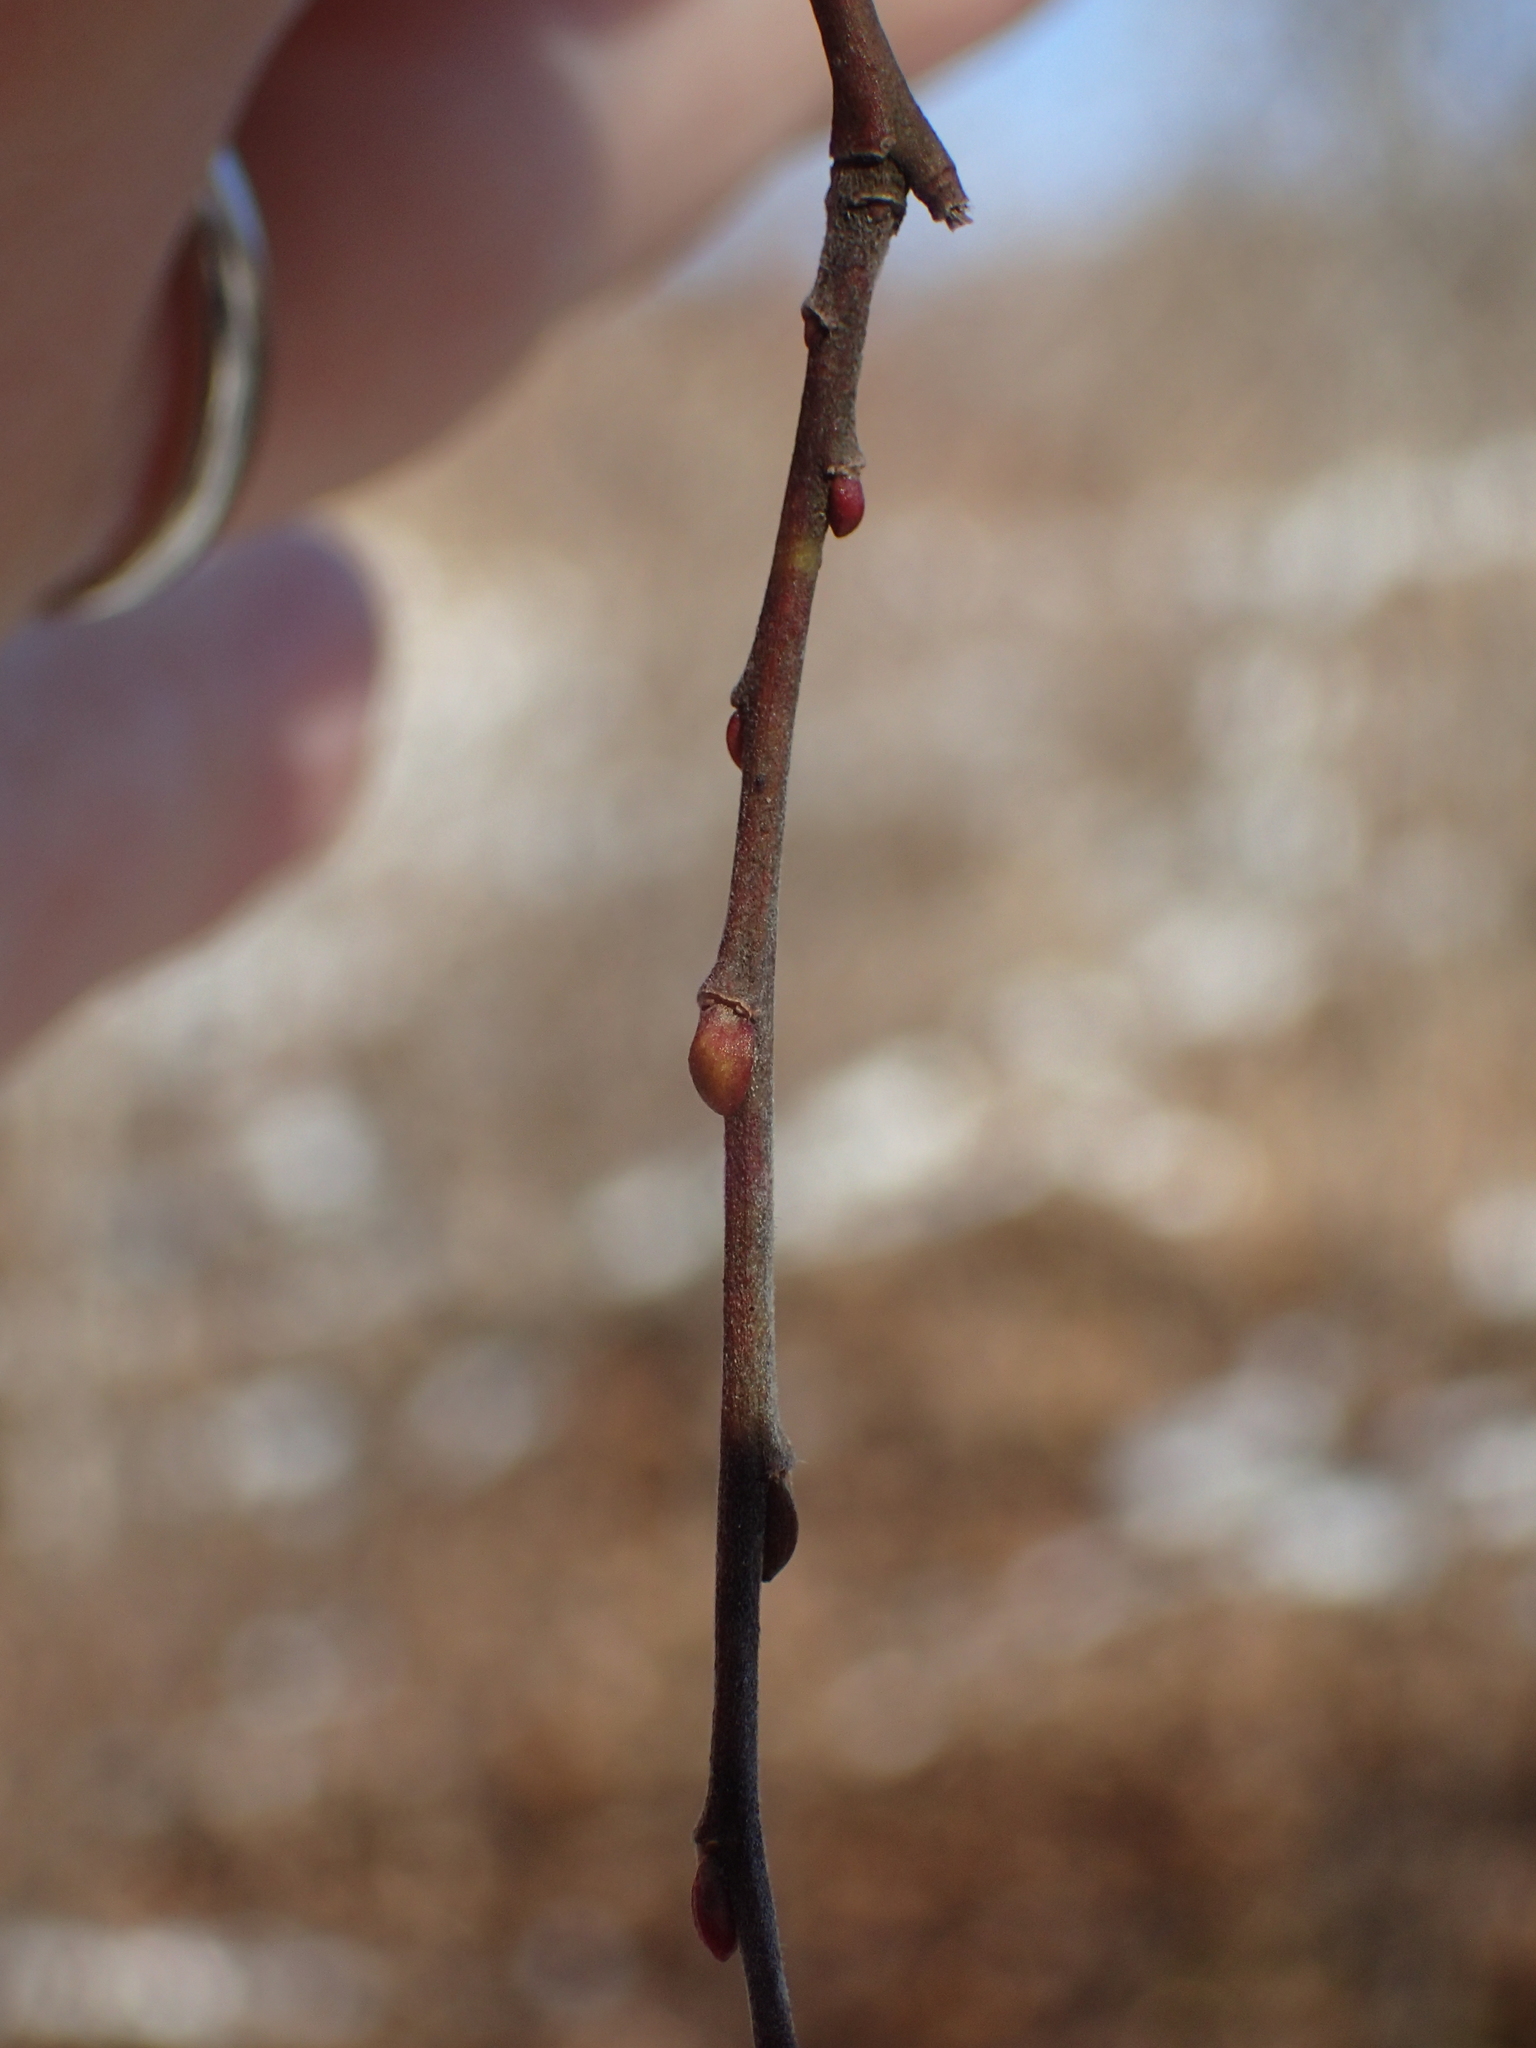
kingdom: Plantae
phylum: Tracheophyta
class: Magnoliopsida
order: Malpighiales
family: Salicaceae
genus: Salix
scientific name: Salix atrocinerea
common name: Rusty willow
